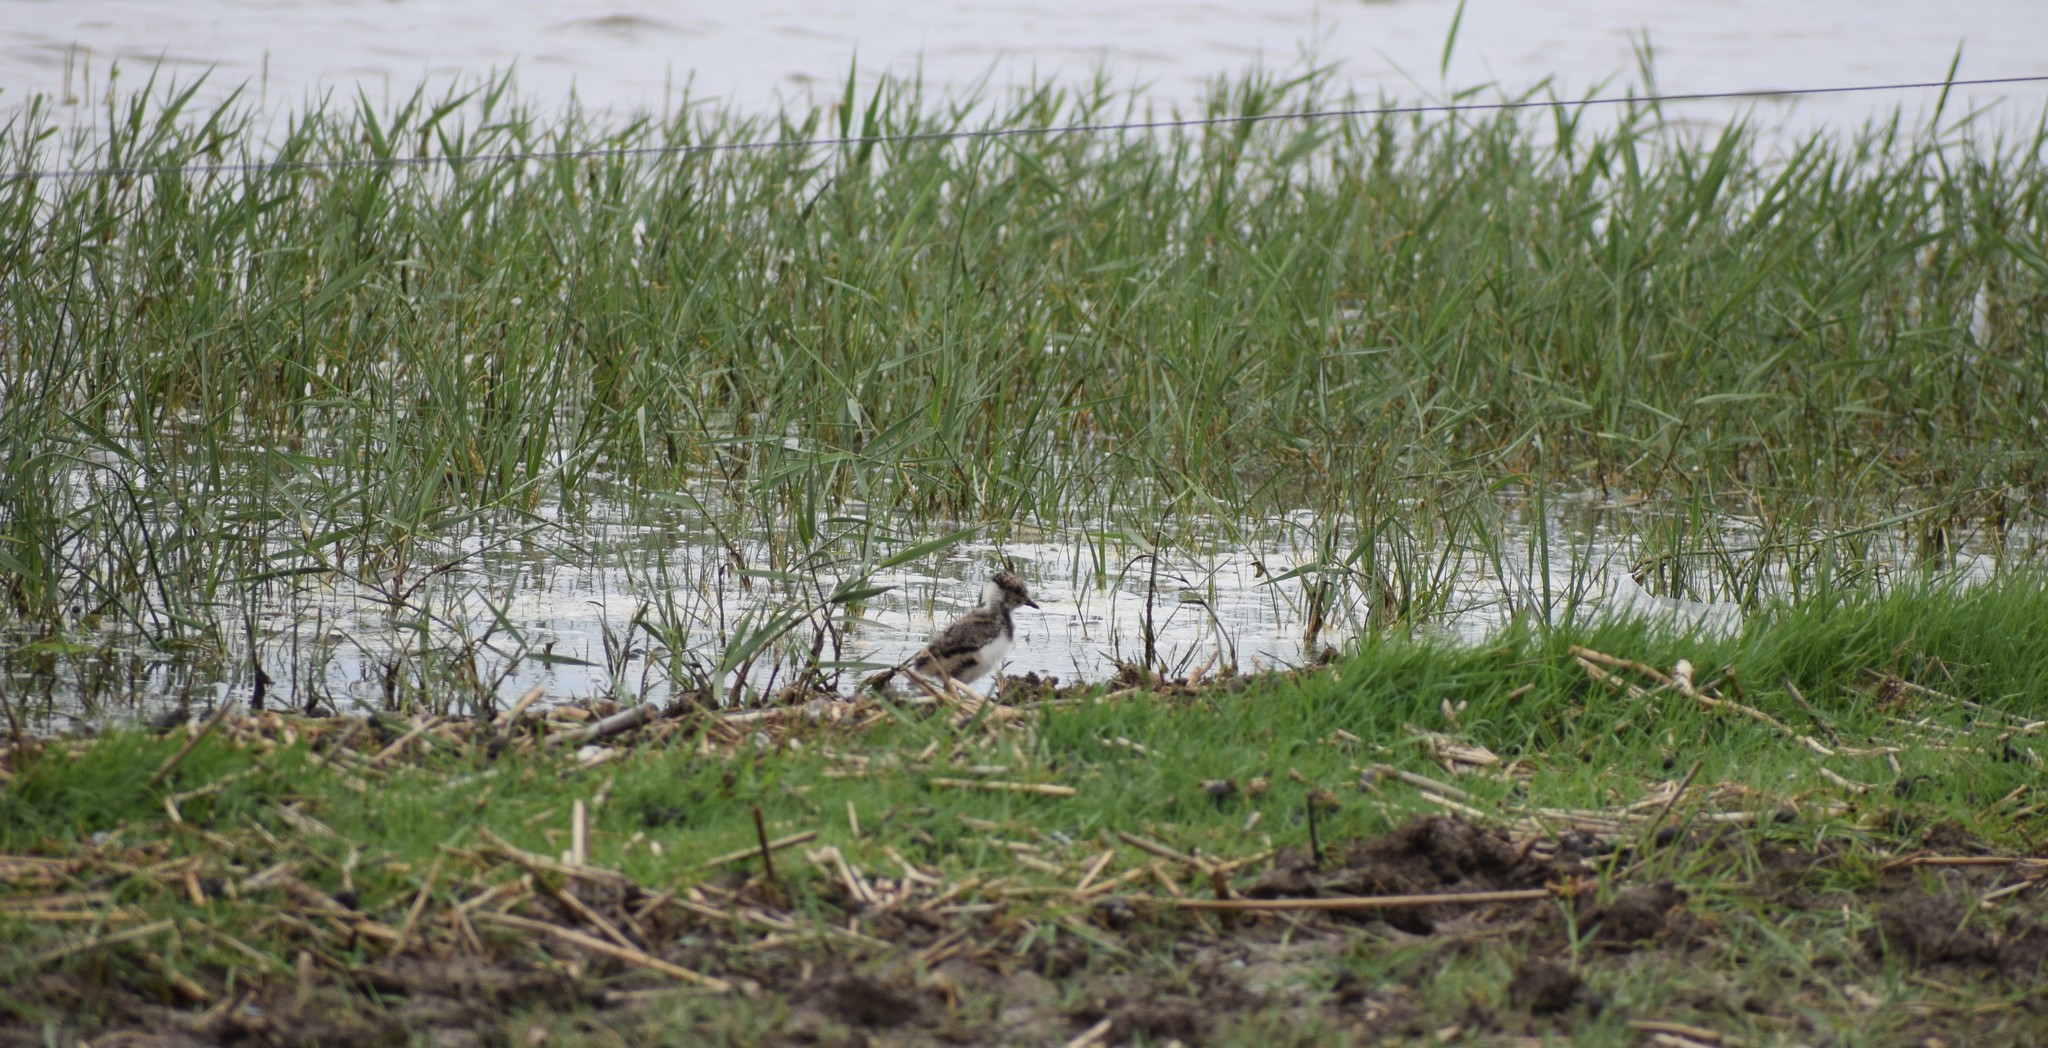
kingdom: Animalia
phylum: Chordata
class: Aves
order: Charadriiformes
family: Charadriidae
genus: Vanellus
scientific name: Vanellus vanellus
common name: Northern lapwing
